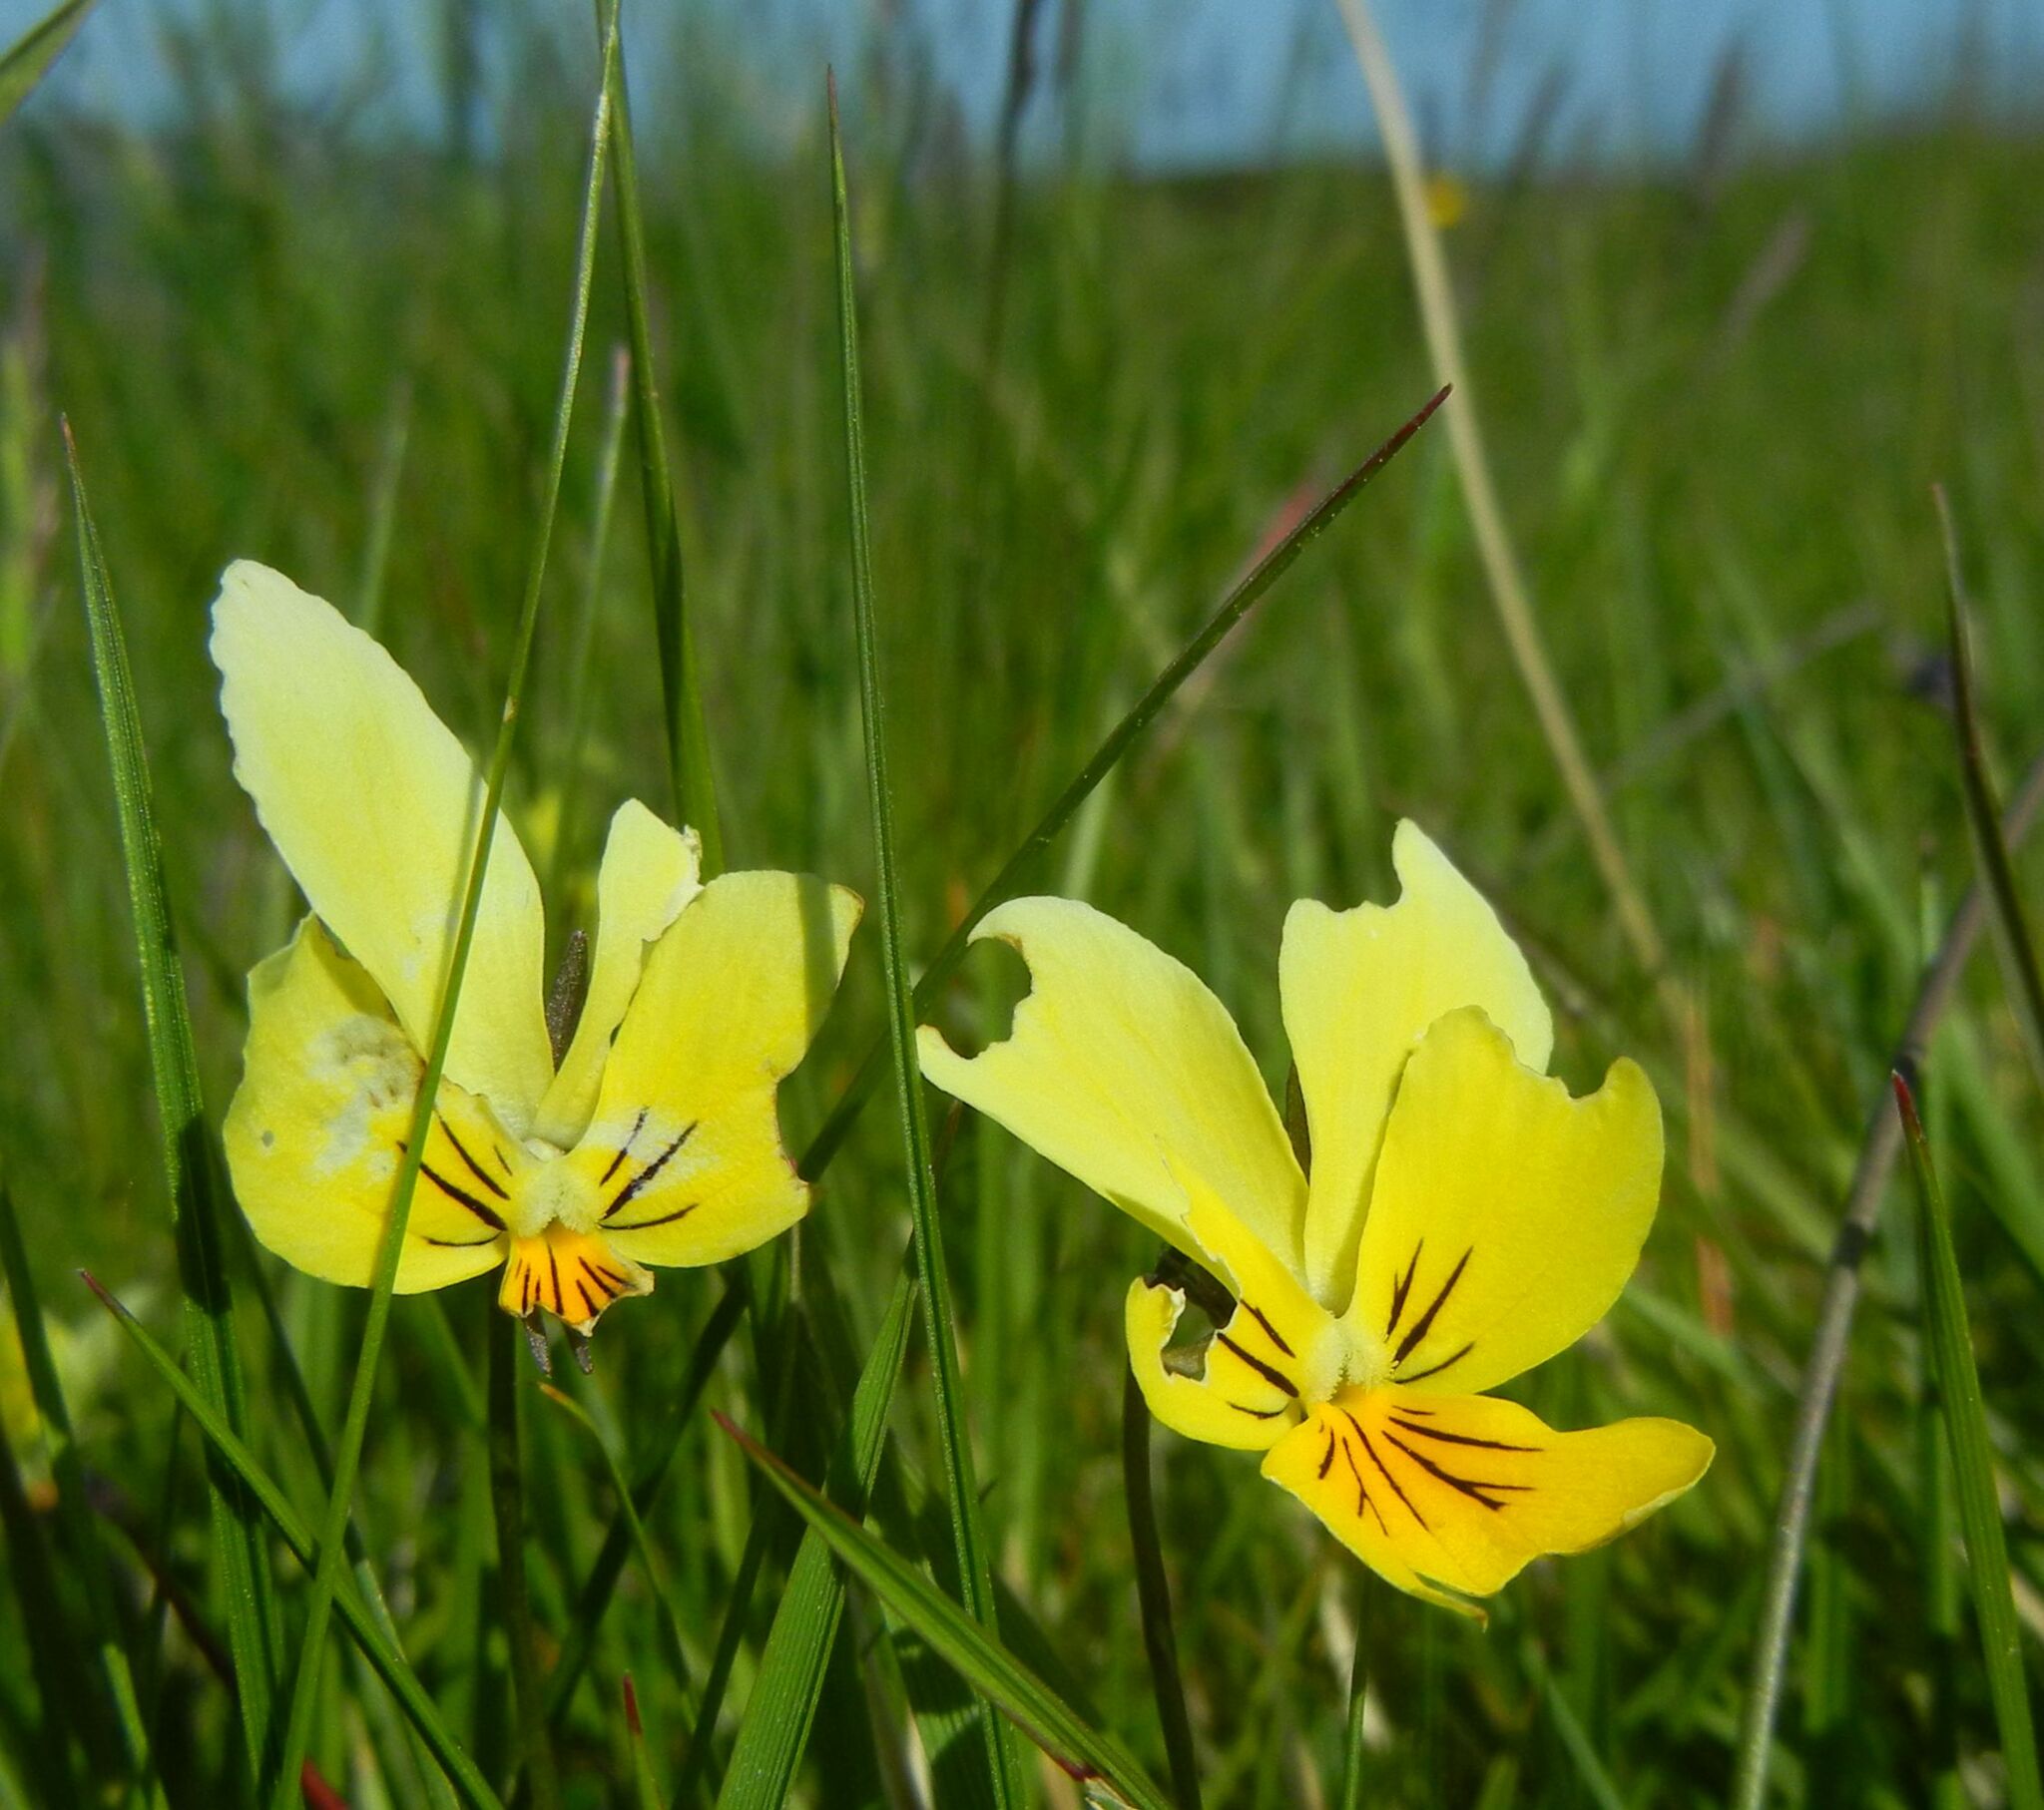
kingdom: Plantae
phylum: Tracheophyta
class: Magnoliopsida
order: Malpighiales
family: Violaceae
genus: Viola
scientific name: Viola lutea
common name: Mountain pansy
